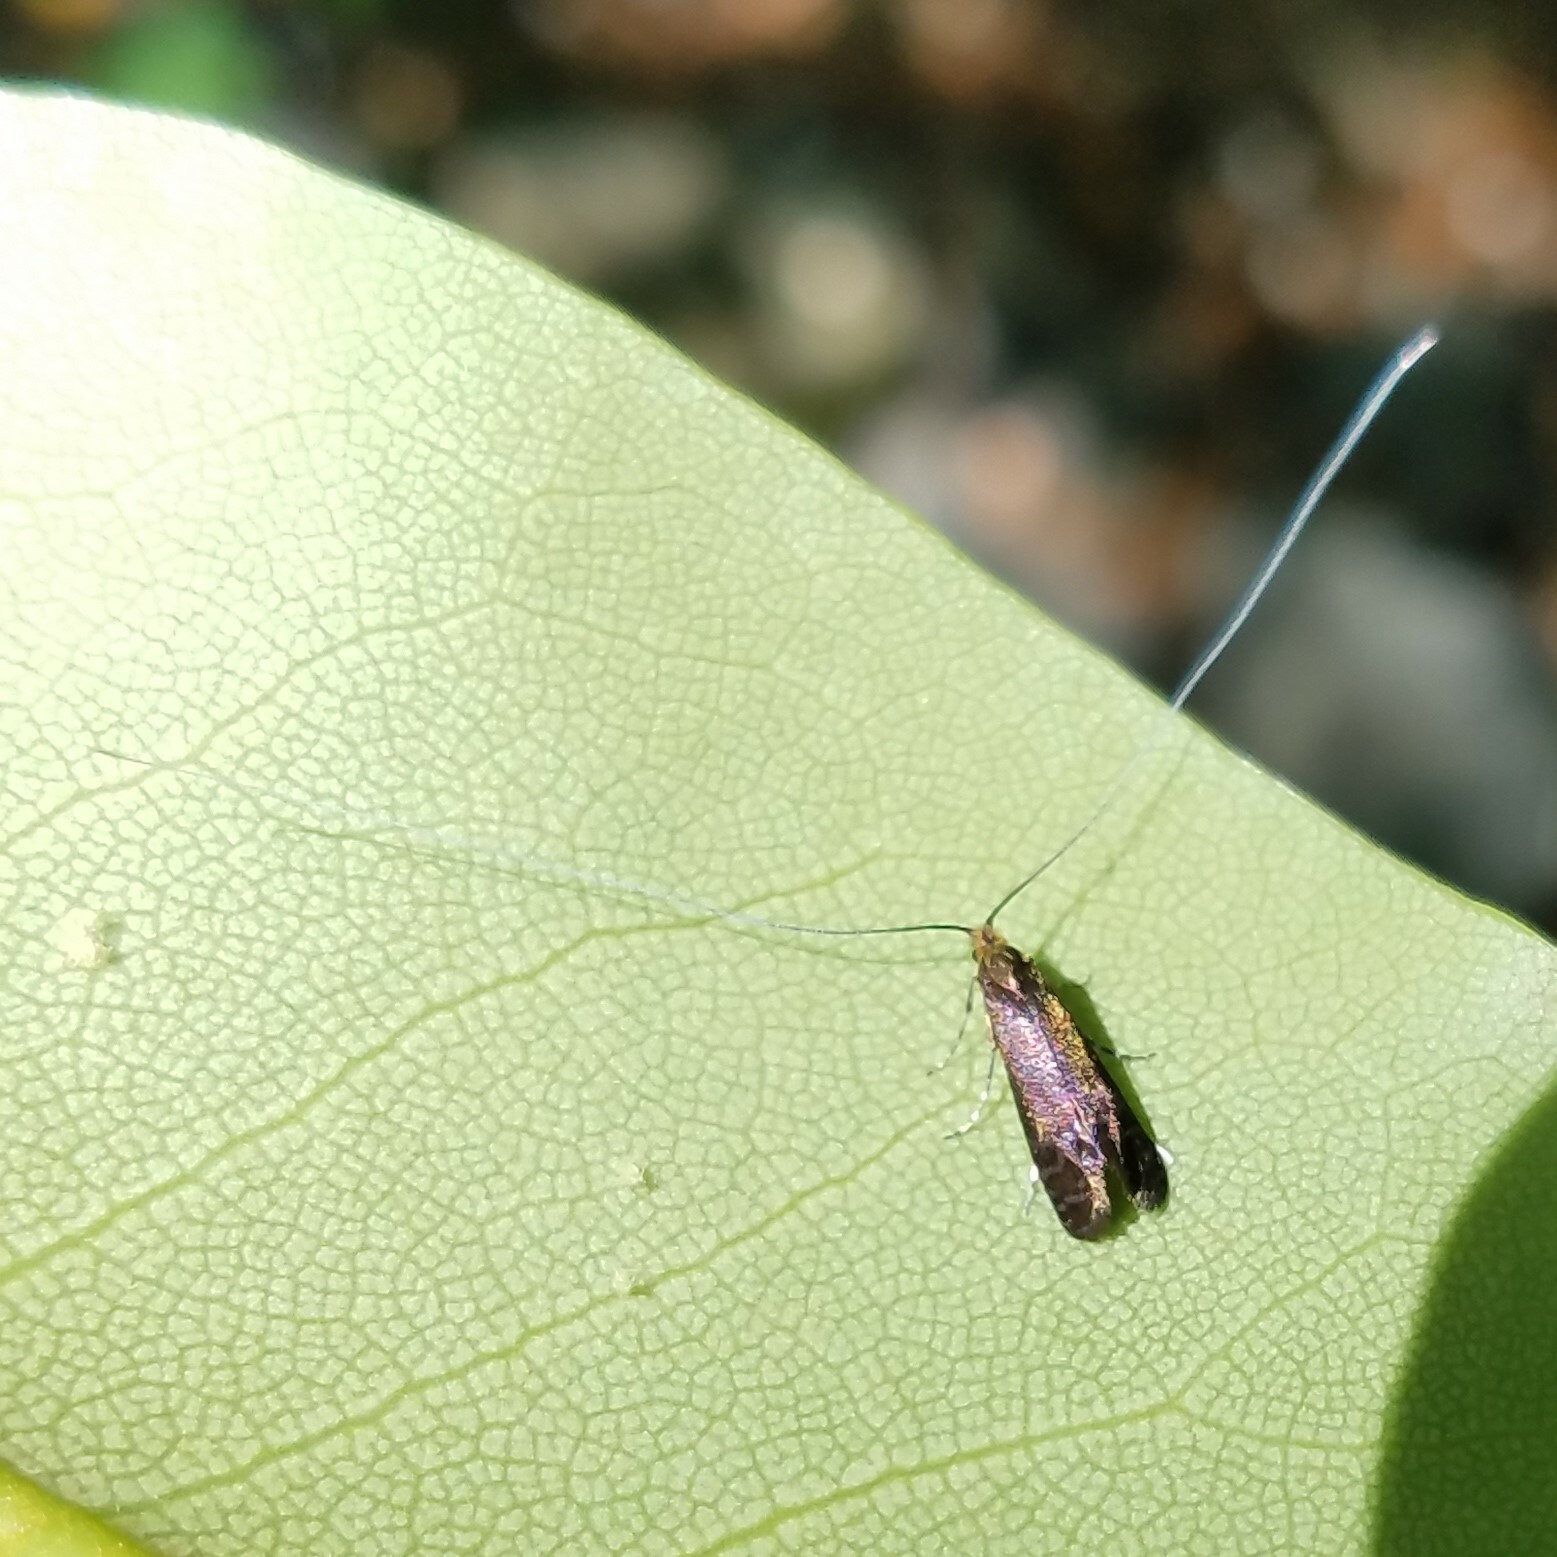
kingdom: Animalia
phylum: Arthropoda
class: Insecta
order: Lepidoptera
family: Adelidae
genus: Adela
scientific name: Adela caeruleella
